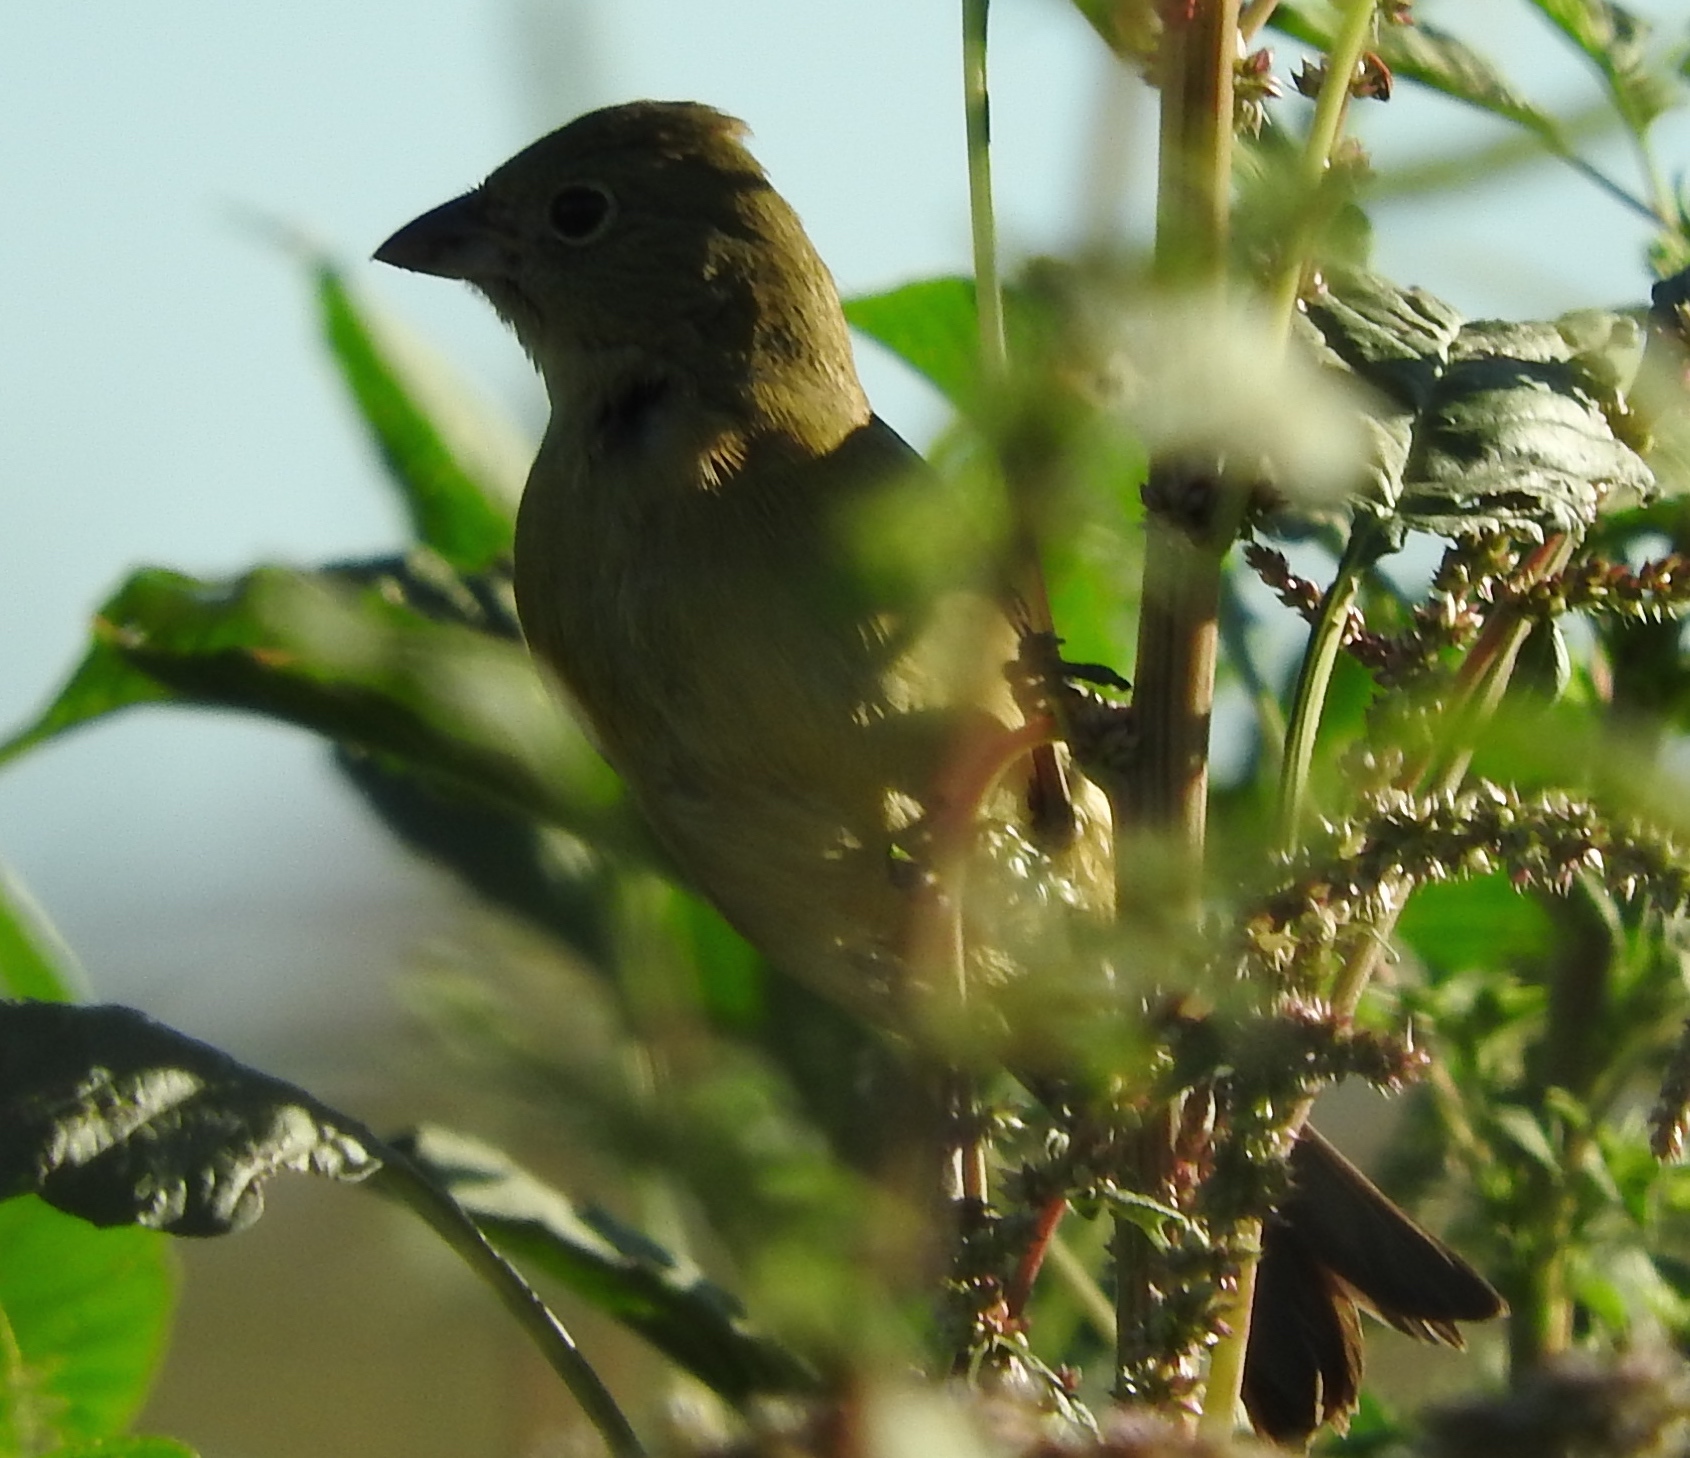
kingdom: Animalia
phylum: Chordata
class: Aves
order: Passeriformes
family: Cardinalidae
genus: Passerina
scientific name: Passerina ciris
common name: Painted bunting
